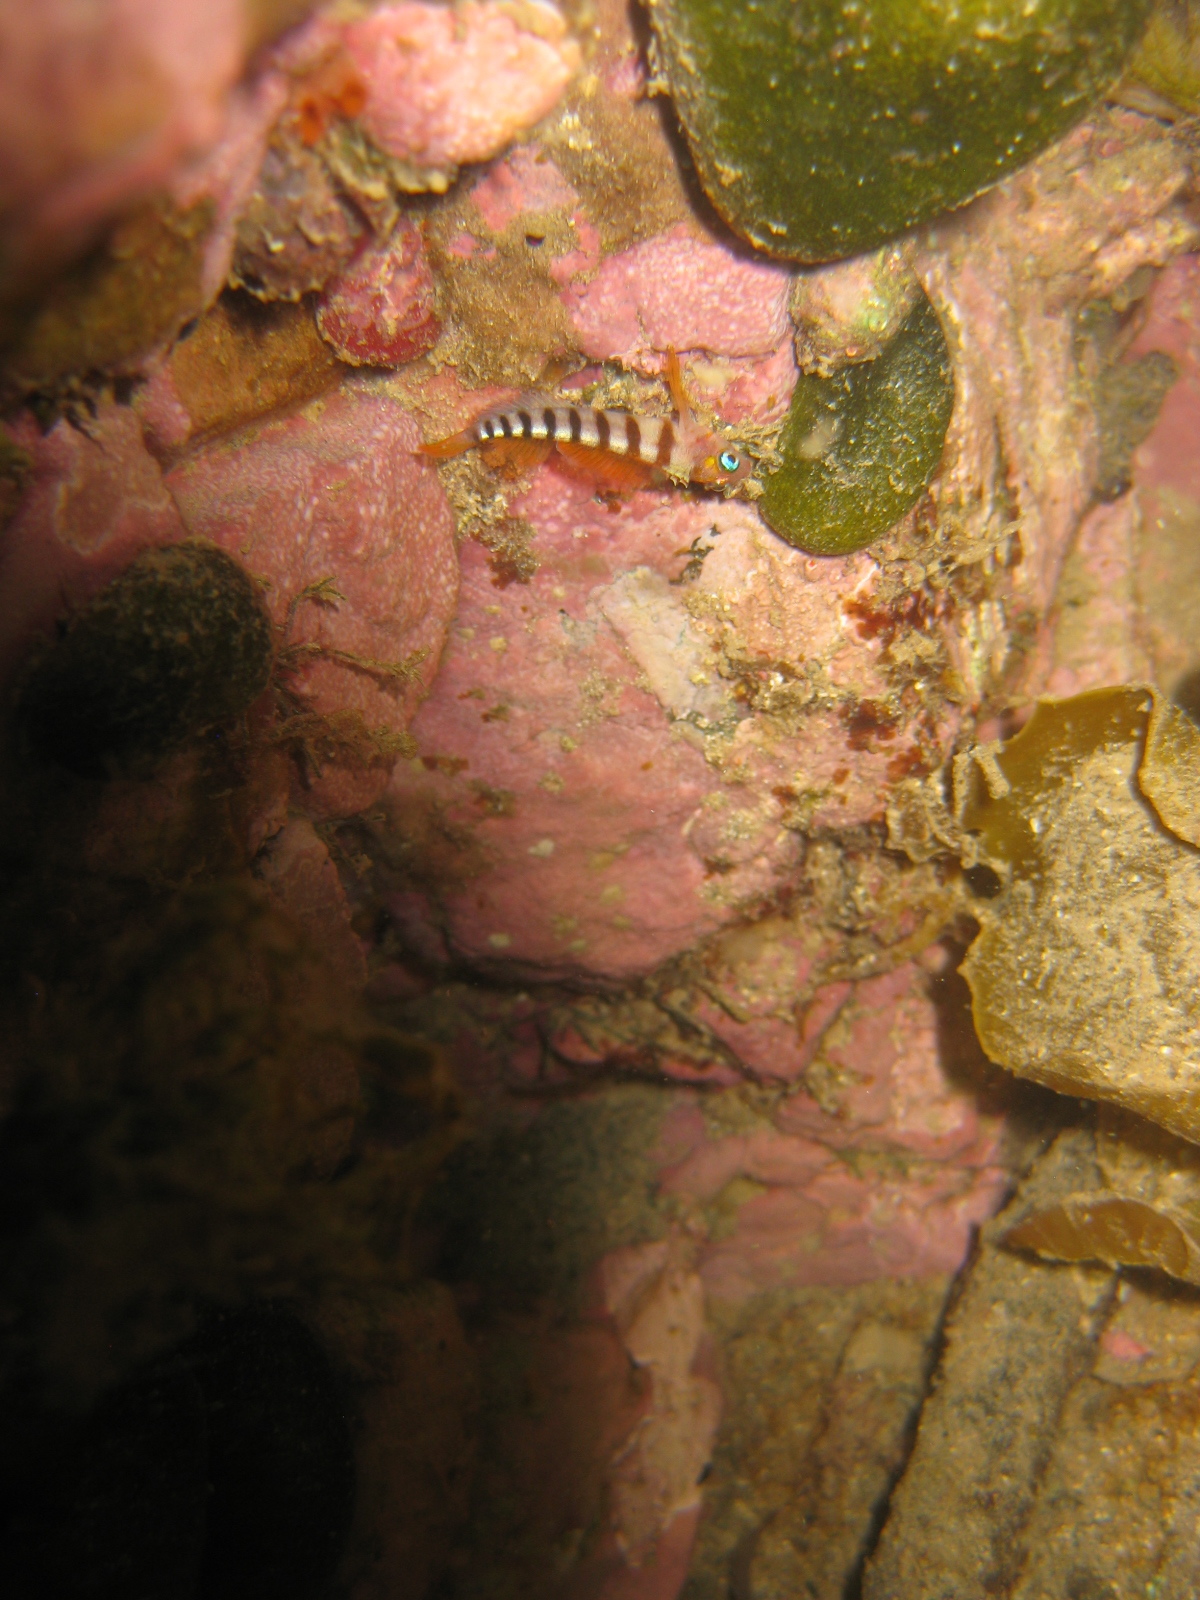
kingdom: Animalia
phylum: Chordata
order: Perciformes
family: Tripterygiidae
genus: Notoclinops
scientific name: Notoclinops segmentatus
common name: Blue-eyed triplefin
